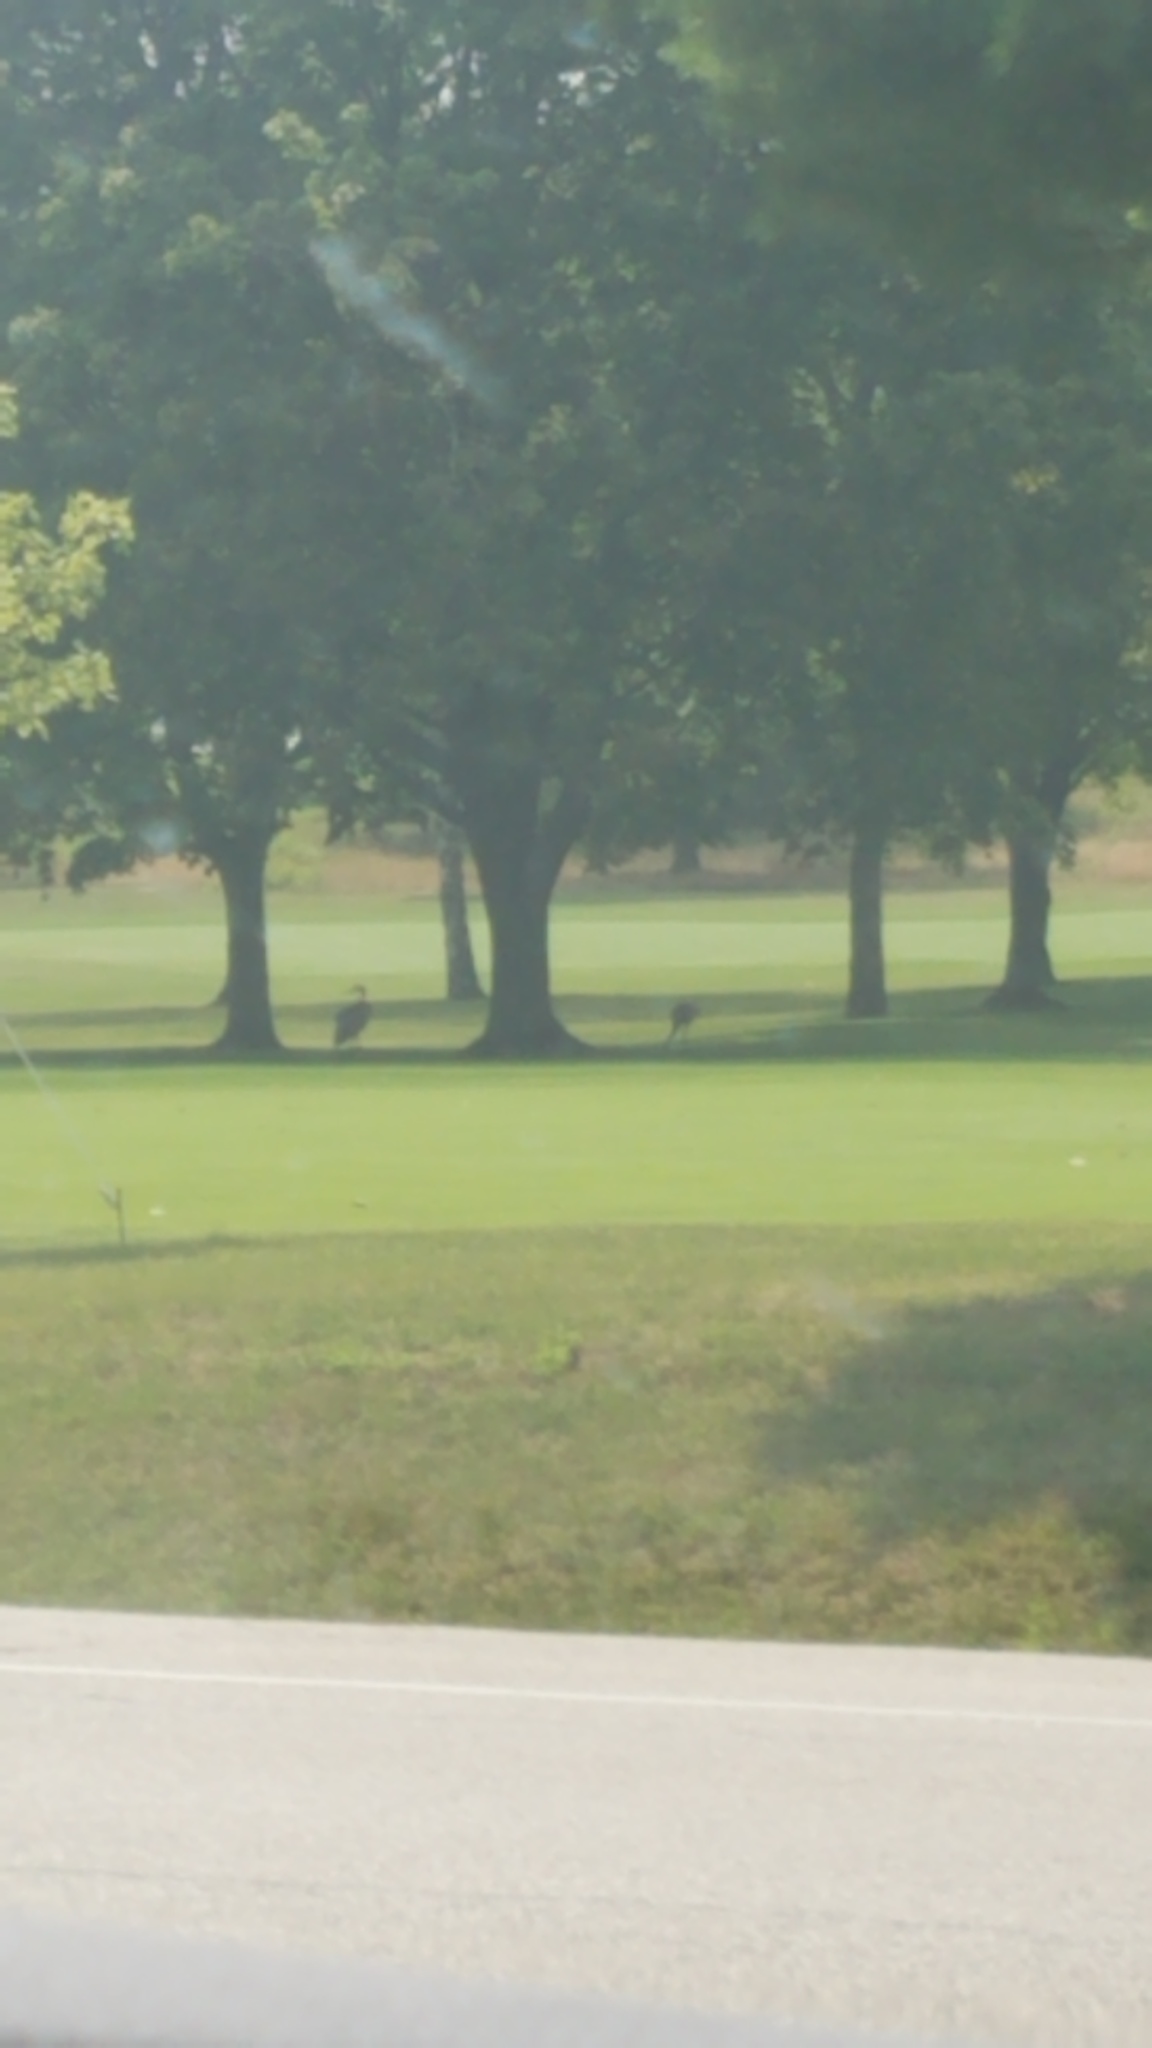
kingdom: Animalia
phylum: Chordata
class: Aves
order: Gruiformes
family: Gruidae
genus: Grus
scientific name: Grus canadensis
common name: Sandhill crane
